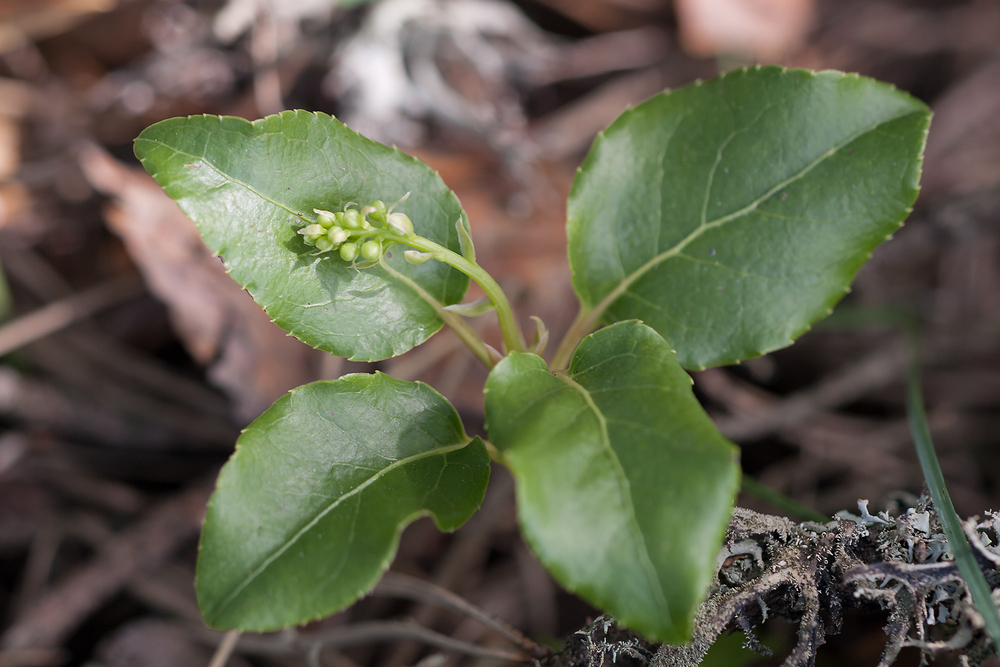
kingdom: Plantae
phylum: Tracheophyta
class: Magnoliopsida
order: Ericales
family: Ericaceae
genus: Orthilia
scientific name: Orthilia secunda
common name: One-sided orthilia
